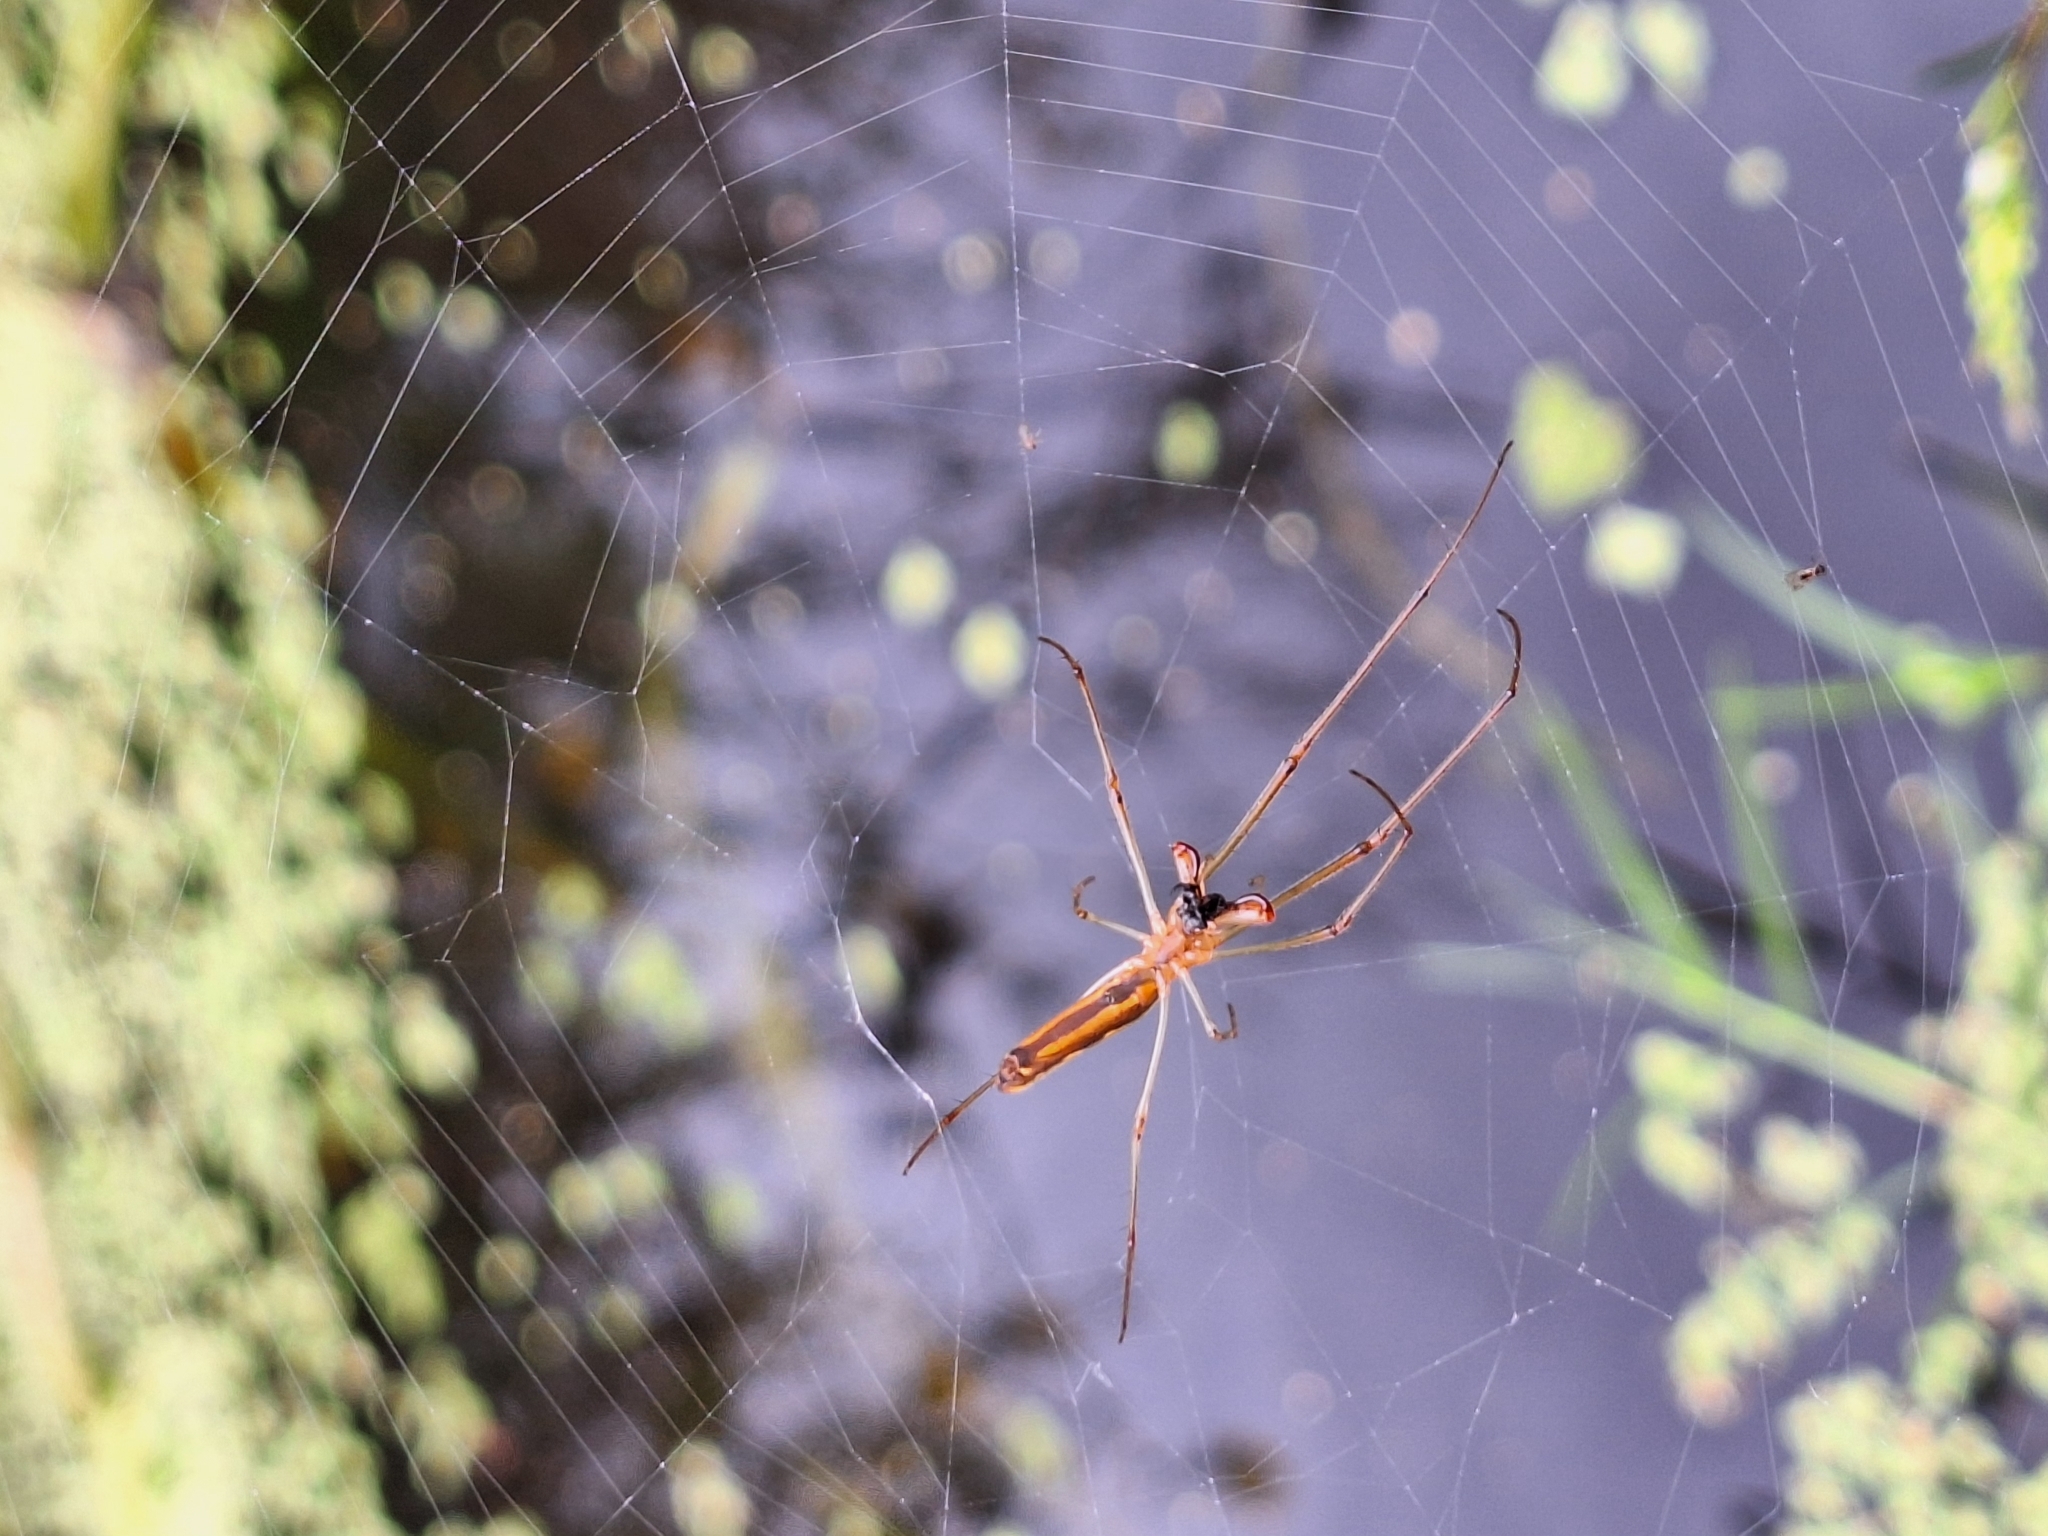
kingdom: Animalia
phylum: Arthropoda
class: Arachnida
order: Araneae
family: Tetragnathidae
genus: Tetragnatha
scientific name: Tetragnatha
